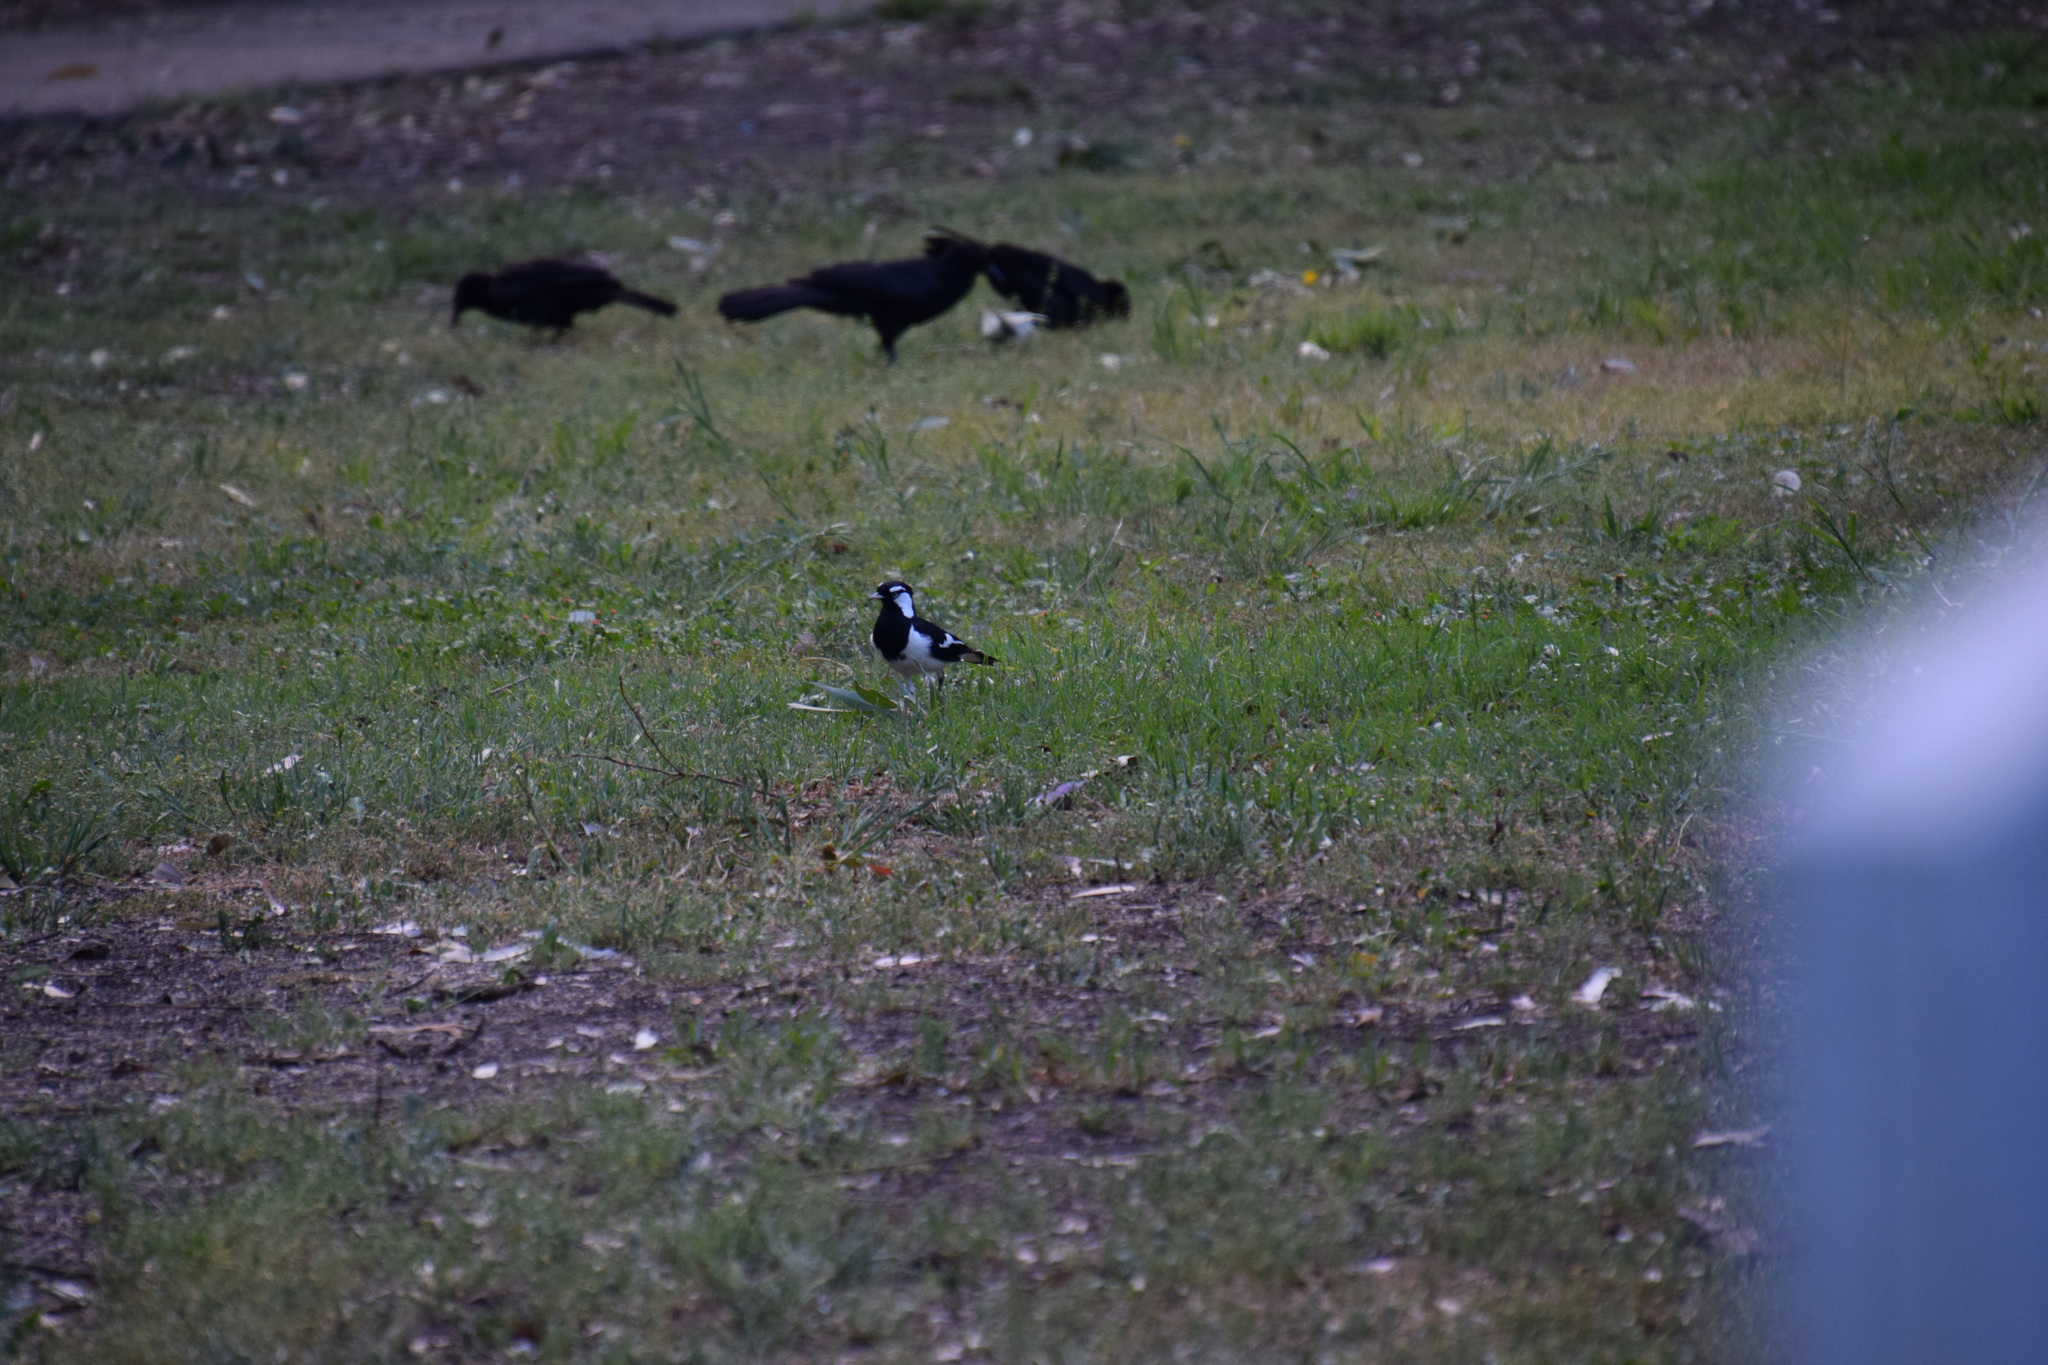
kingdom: Animalia
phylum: Chordata
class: Aves
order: Passeriformes
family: Monarchidae
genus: Grallina
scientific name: Grallina cyanoleuca
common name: Magpie-lark
